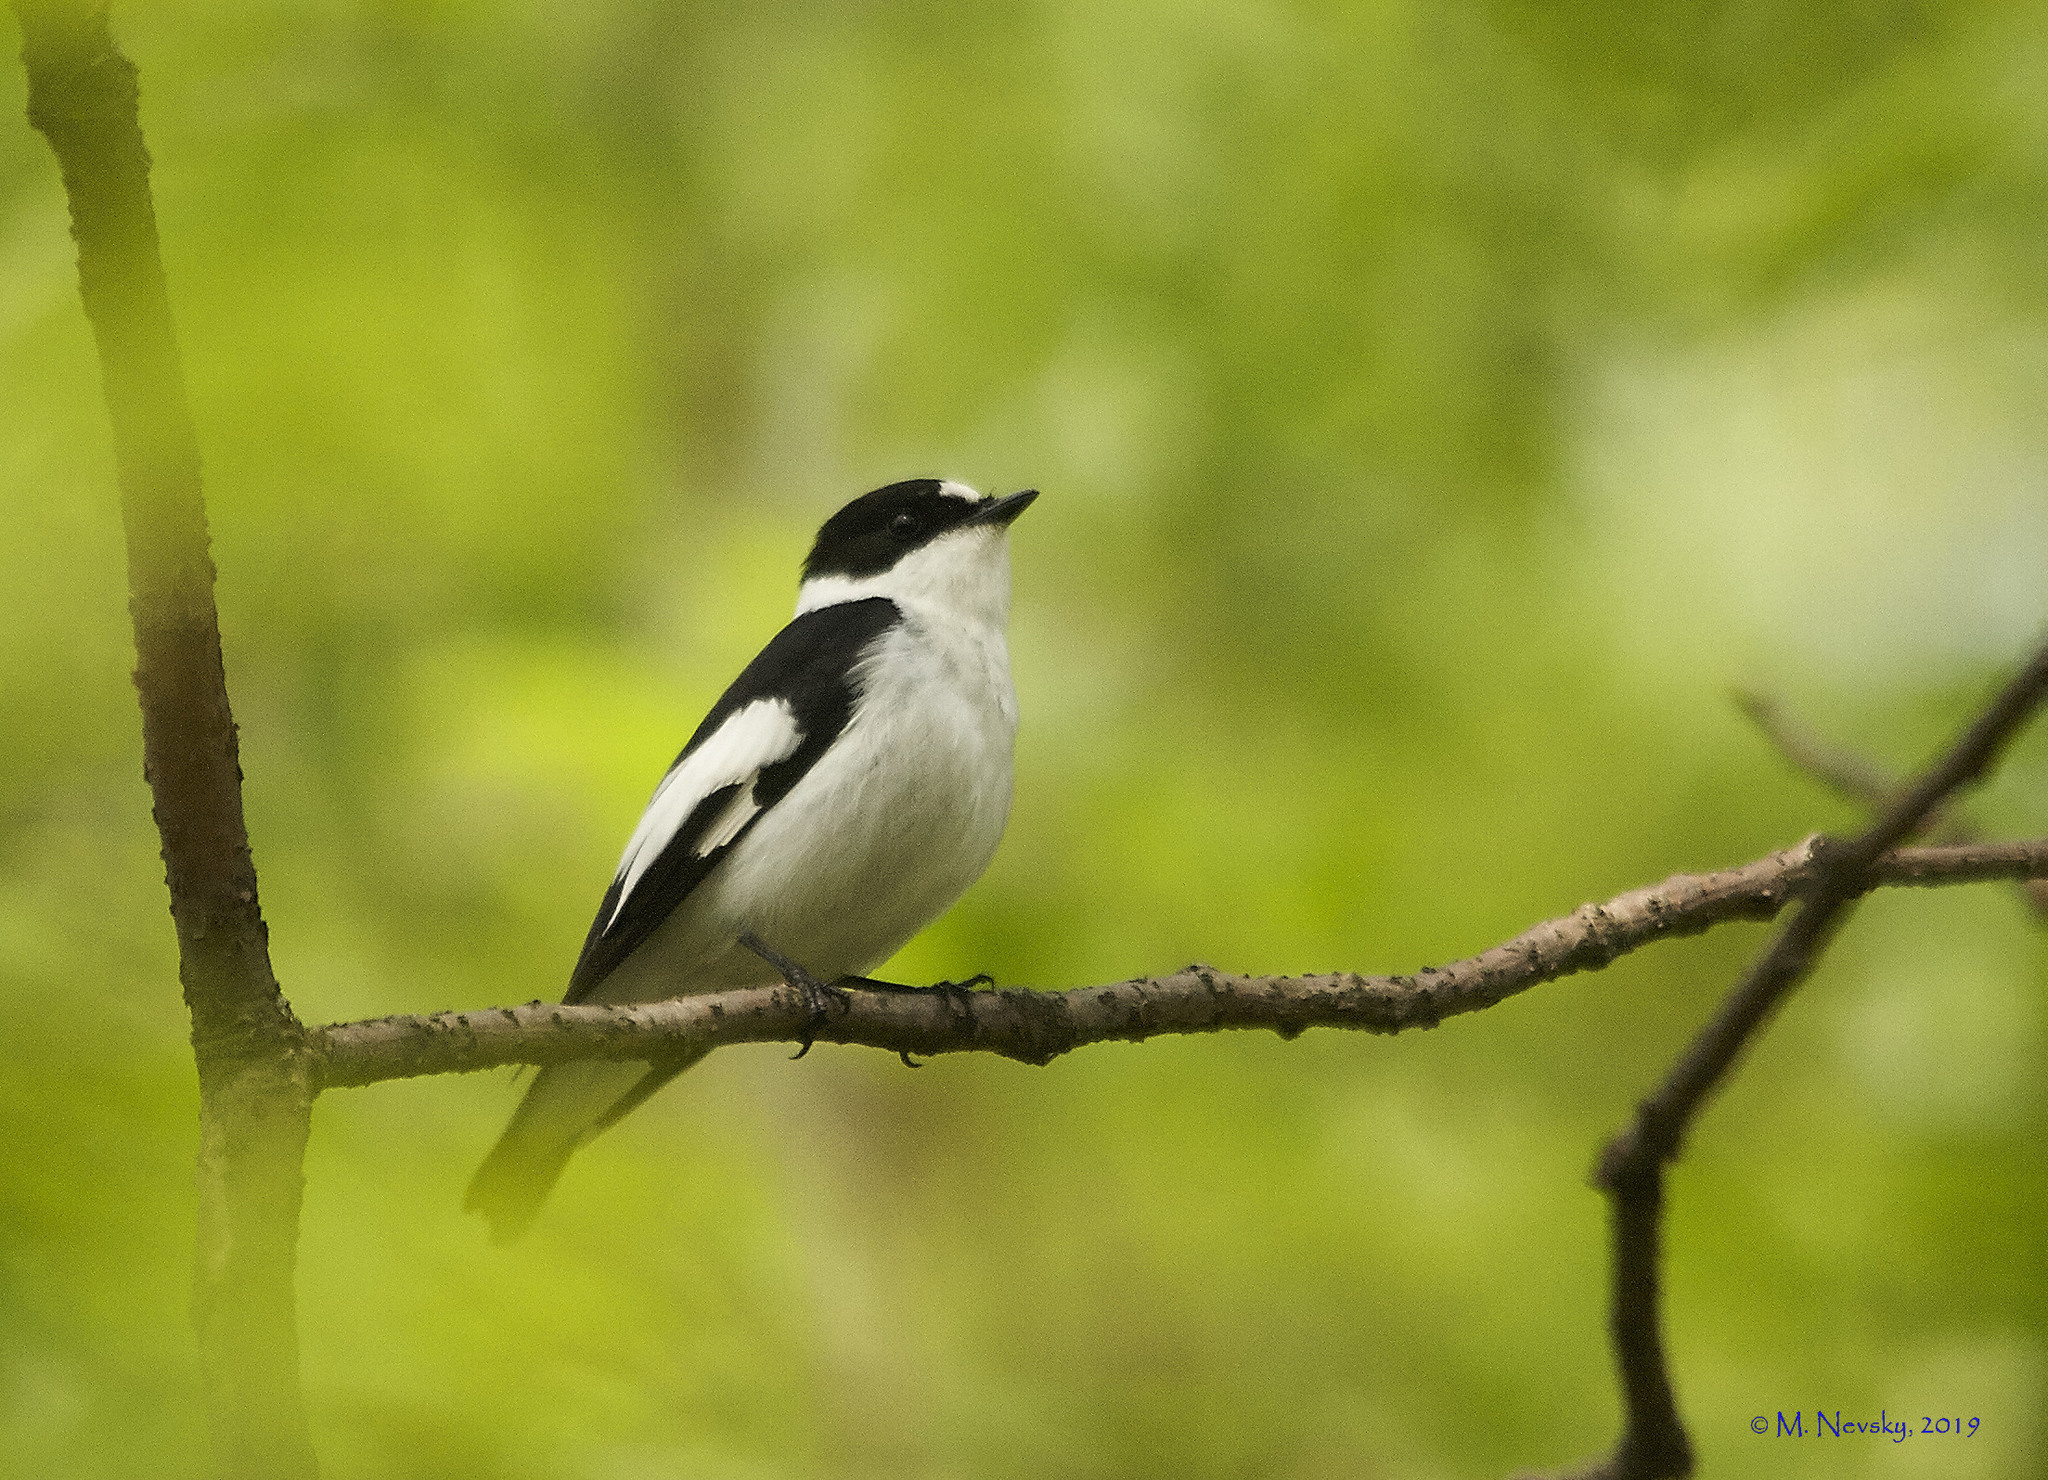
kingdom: Animalia
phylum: Chordata
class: Aves
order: Passeriformes
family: Muscicapidae
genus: Ficedula
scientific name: Ficedula albicollis
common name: Collared flycatcher
